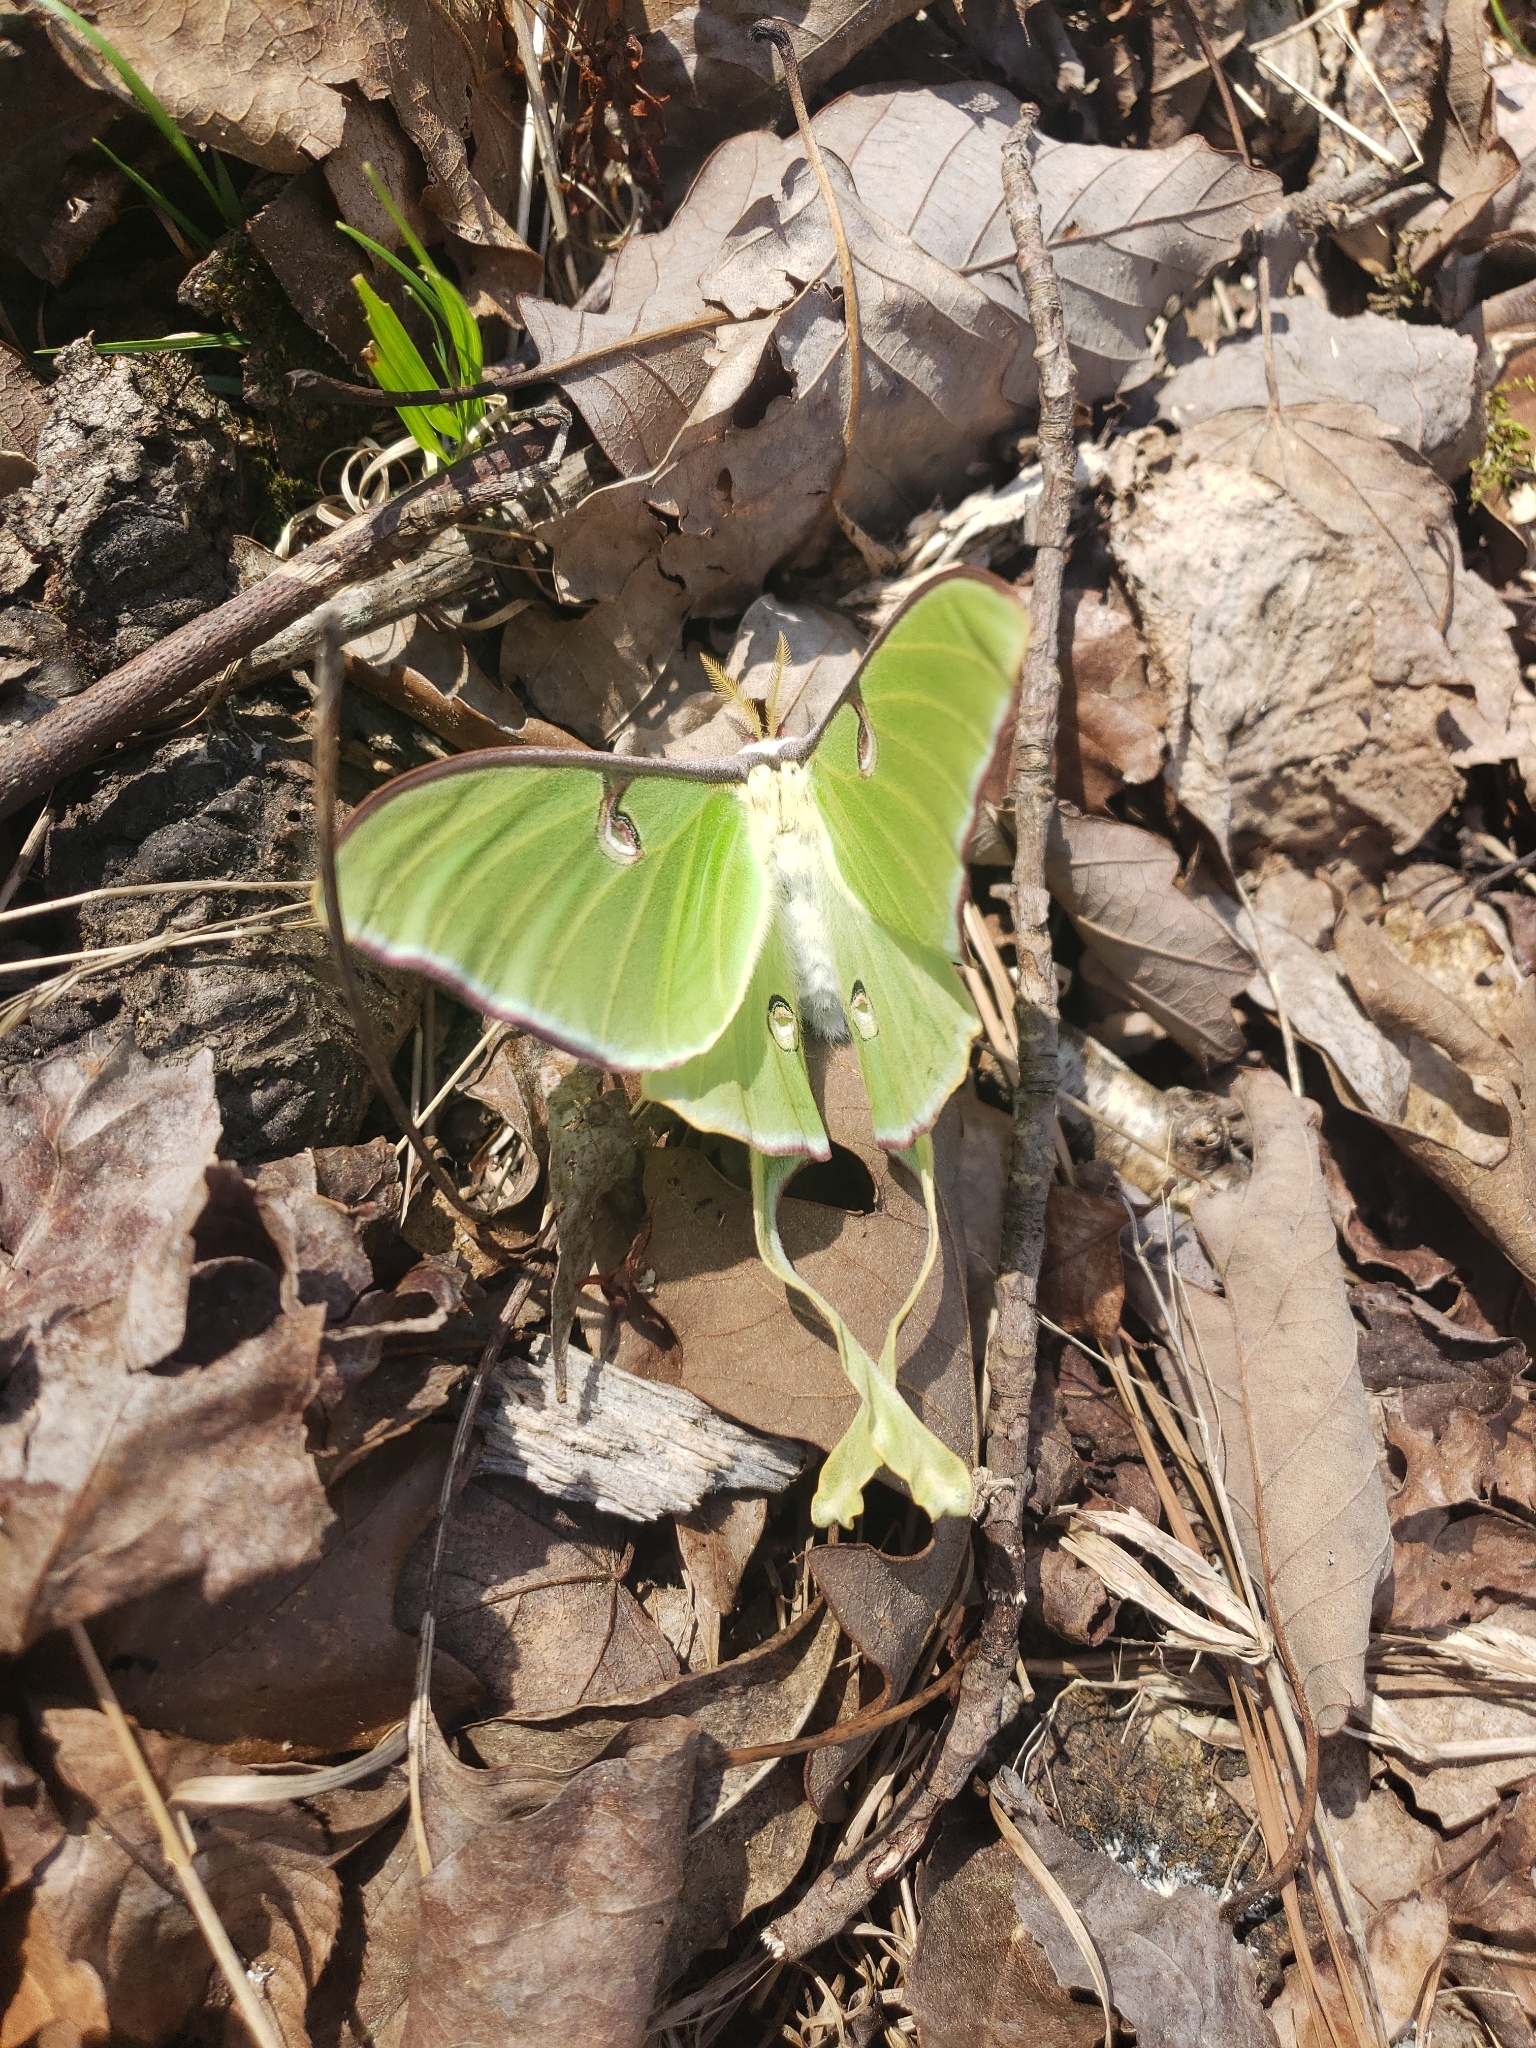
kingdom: Animalia
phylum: Arthropoda
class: Insecta
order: Lepidoptera
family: Saturniidae
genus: Actias
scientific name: Actias luna
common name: Luna moth
